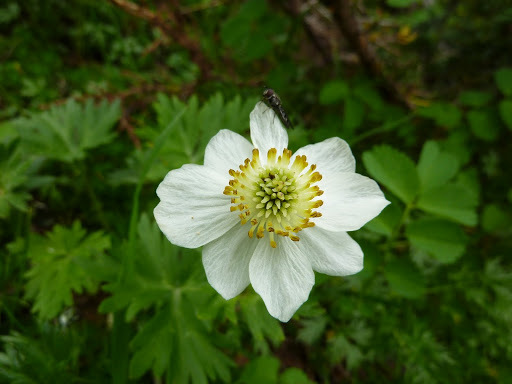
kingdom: Plantae
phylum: Tracheophyta
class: Magnoliopsida
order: Ranunculales
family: Ranunculaceae
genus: Anemonastrum
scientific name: Anemonastrum narcissiflorum
